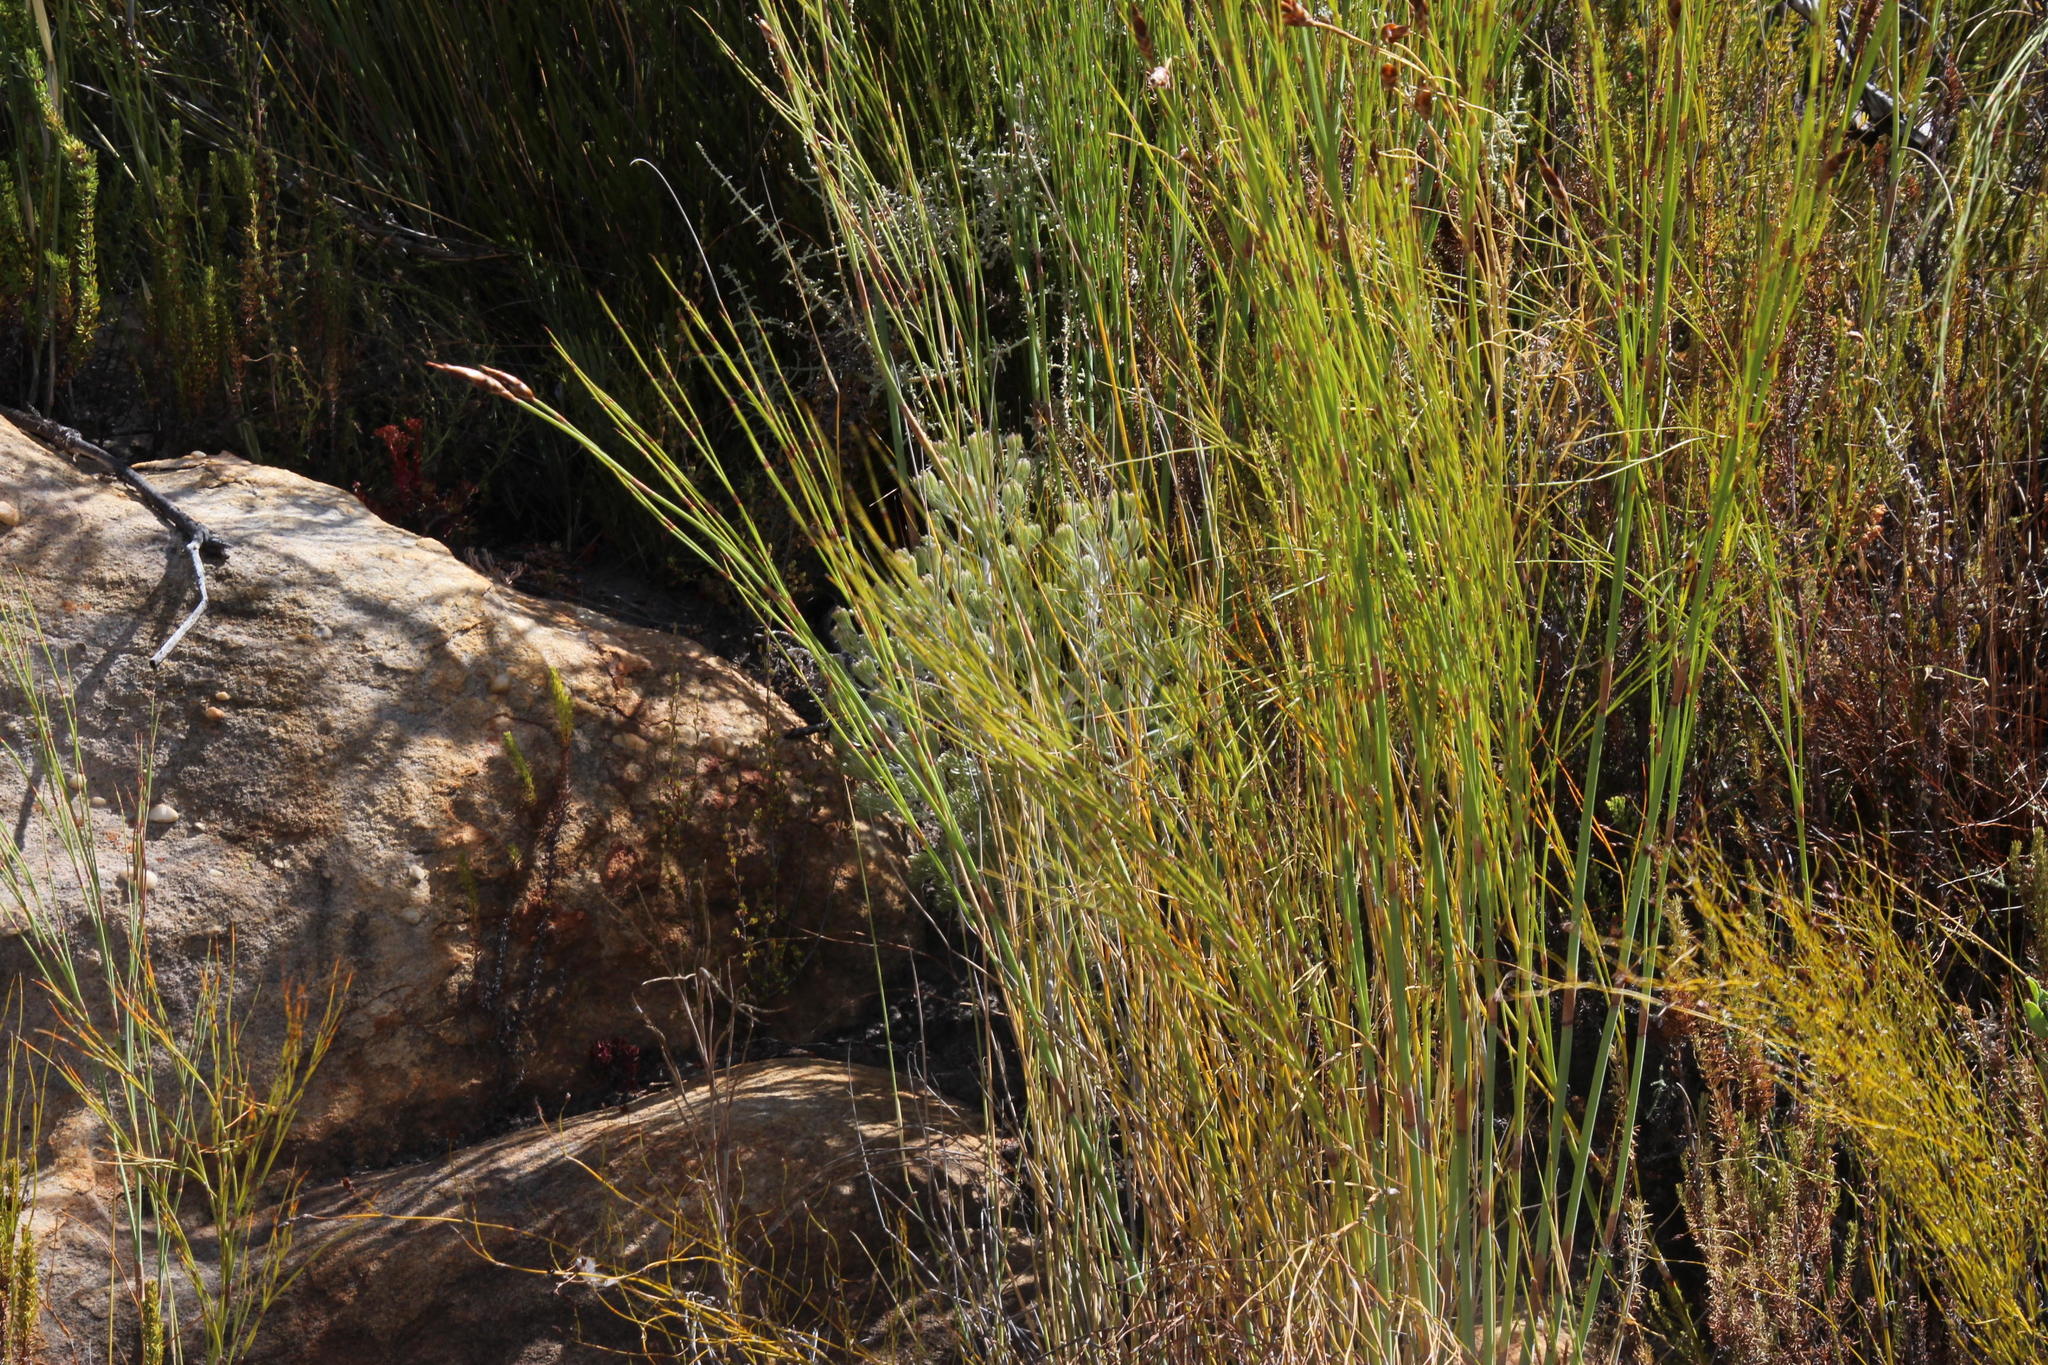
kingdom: Plantae
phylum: Tracheophyta
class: Magnoliopsida
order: Proteales
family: Proteaceae
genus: Paranomus
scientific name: Paranomus bracteolaris
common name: Bokkeveld tree sceptre
